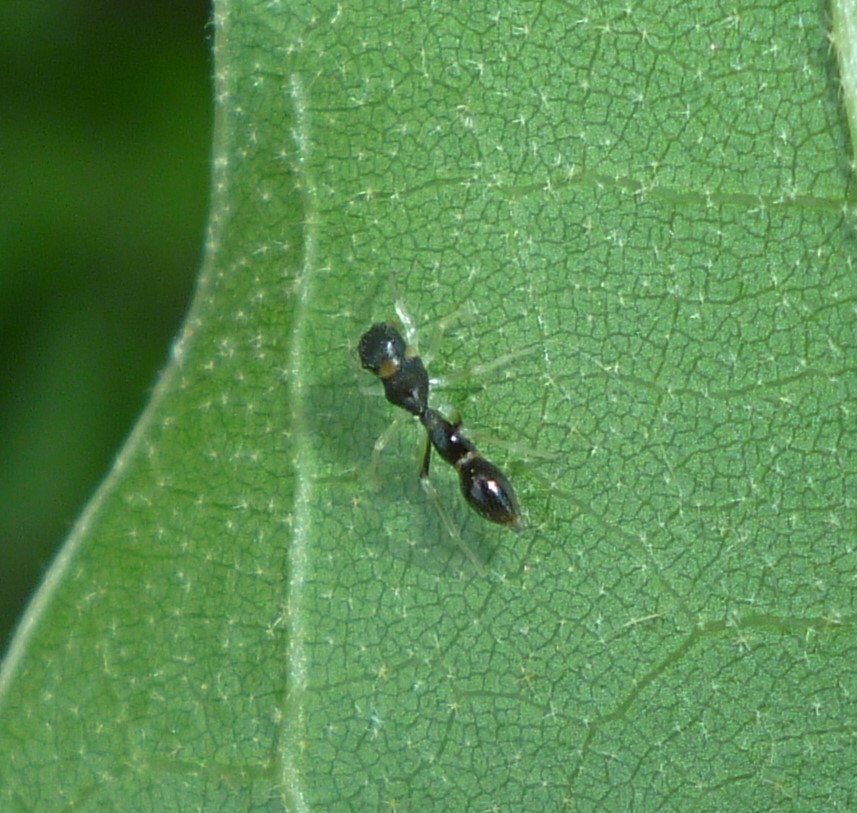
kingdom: Animalia
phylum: Arthropoda
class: Arachnida
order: Araneae
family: Salticidae
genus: Synemosyna
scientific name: Synemosyna formica
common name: Slender ant-mimic jumping spider
